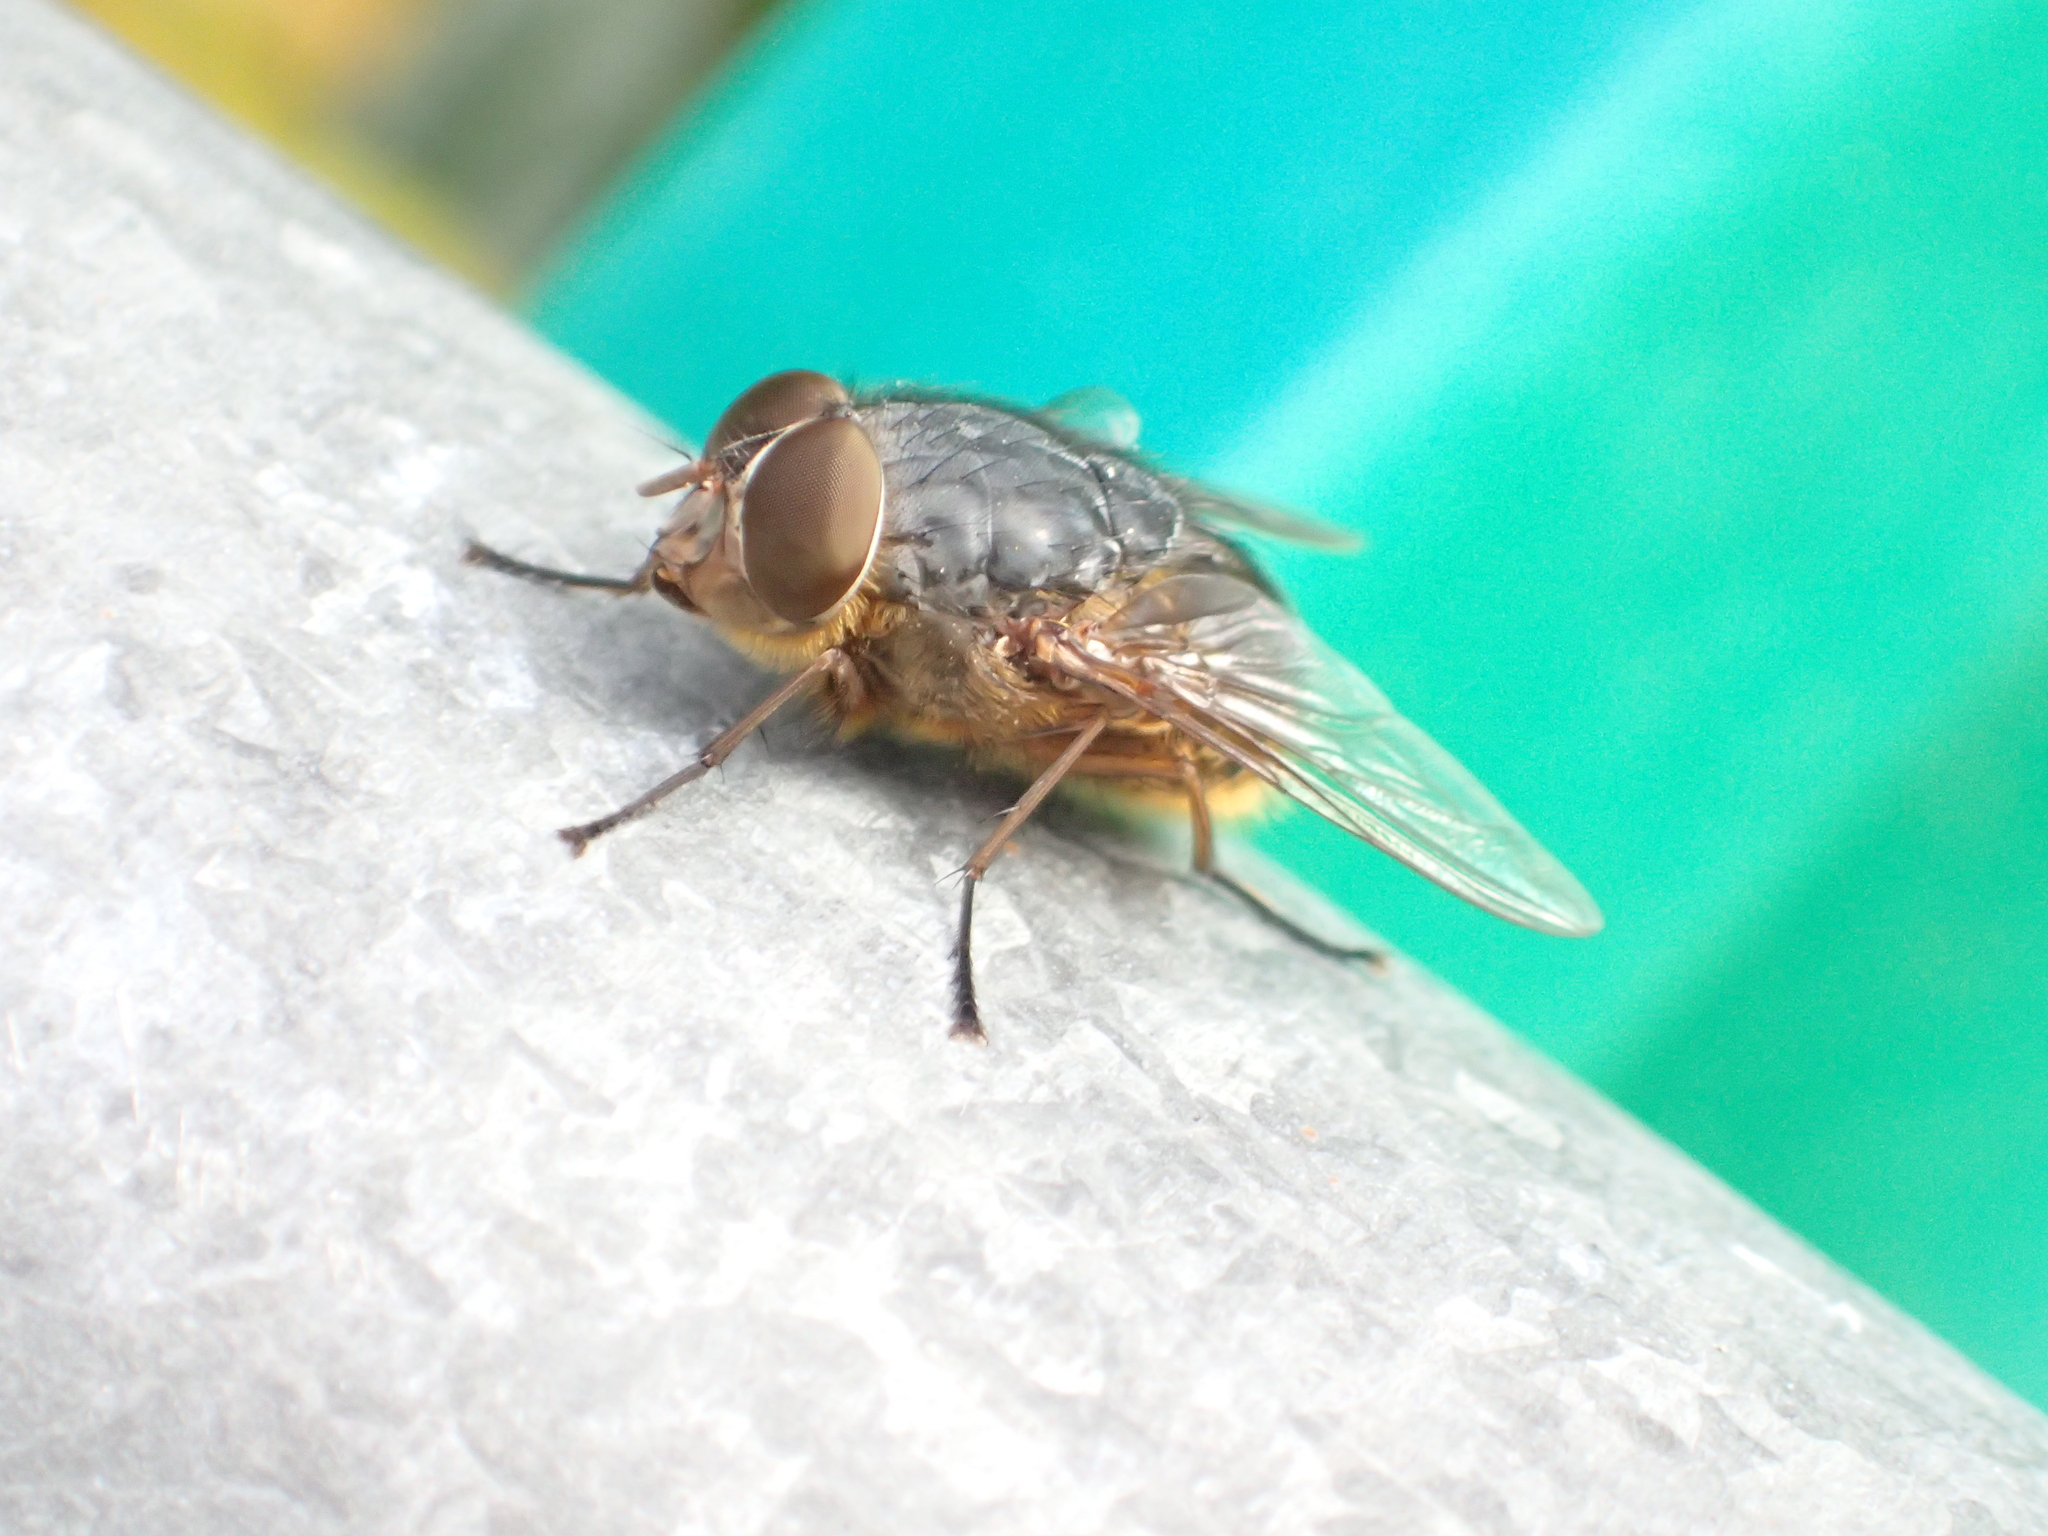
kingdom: Animalia
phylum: Arthropoda
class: Insecta
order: Diptera
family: Calliphoridae
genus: Calliphora
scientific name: Calliphora stygia
